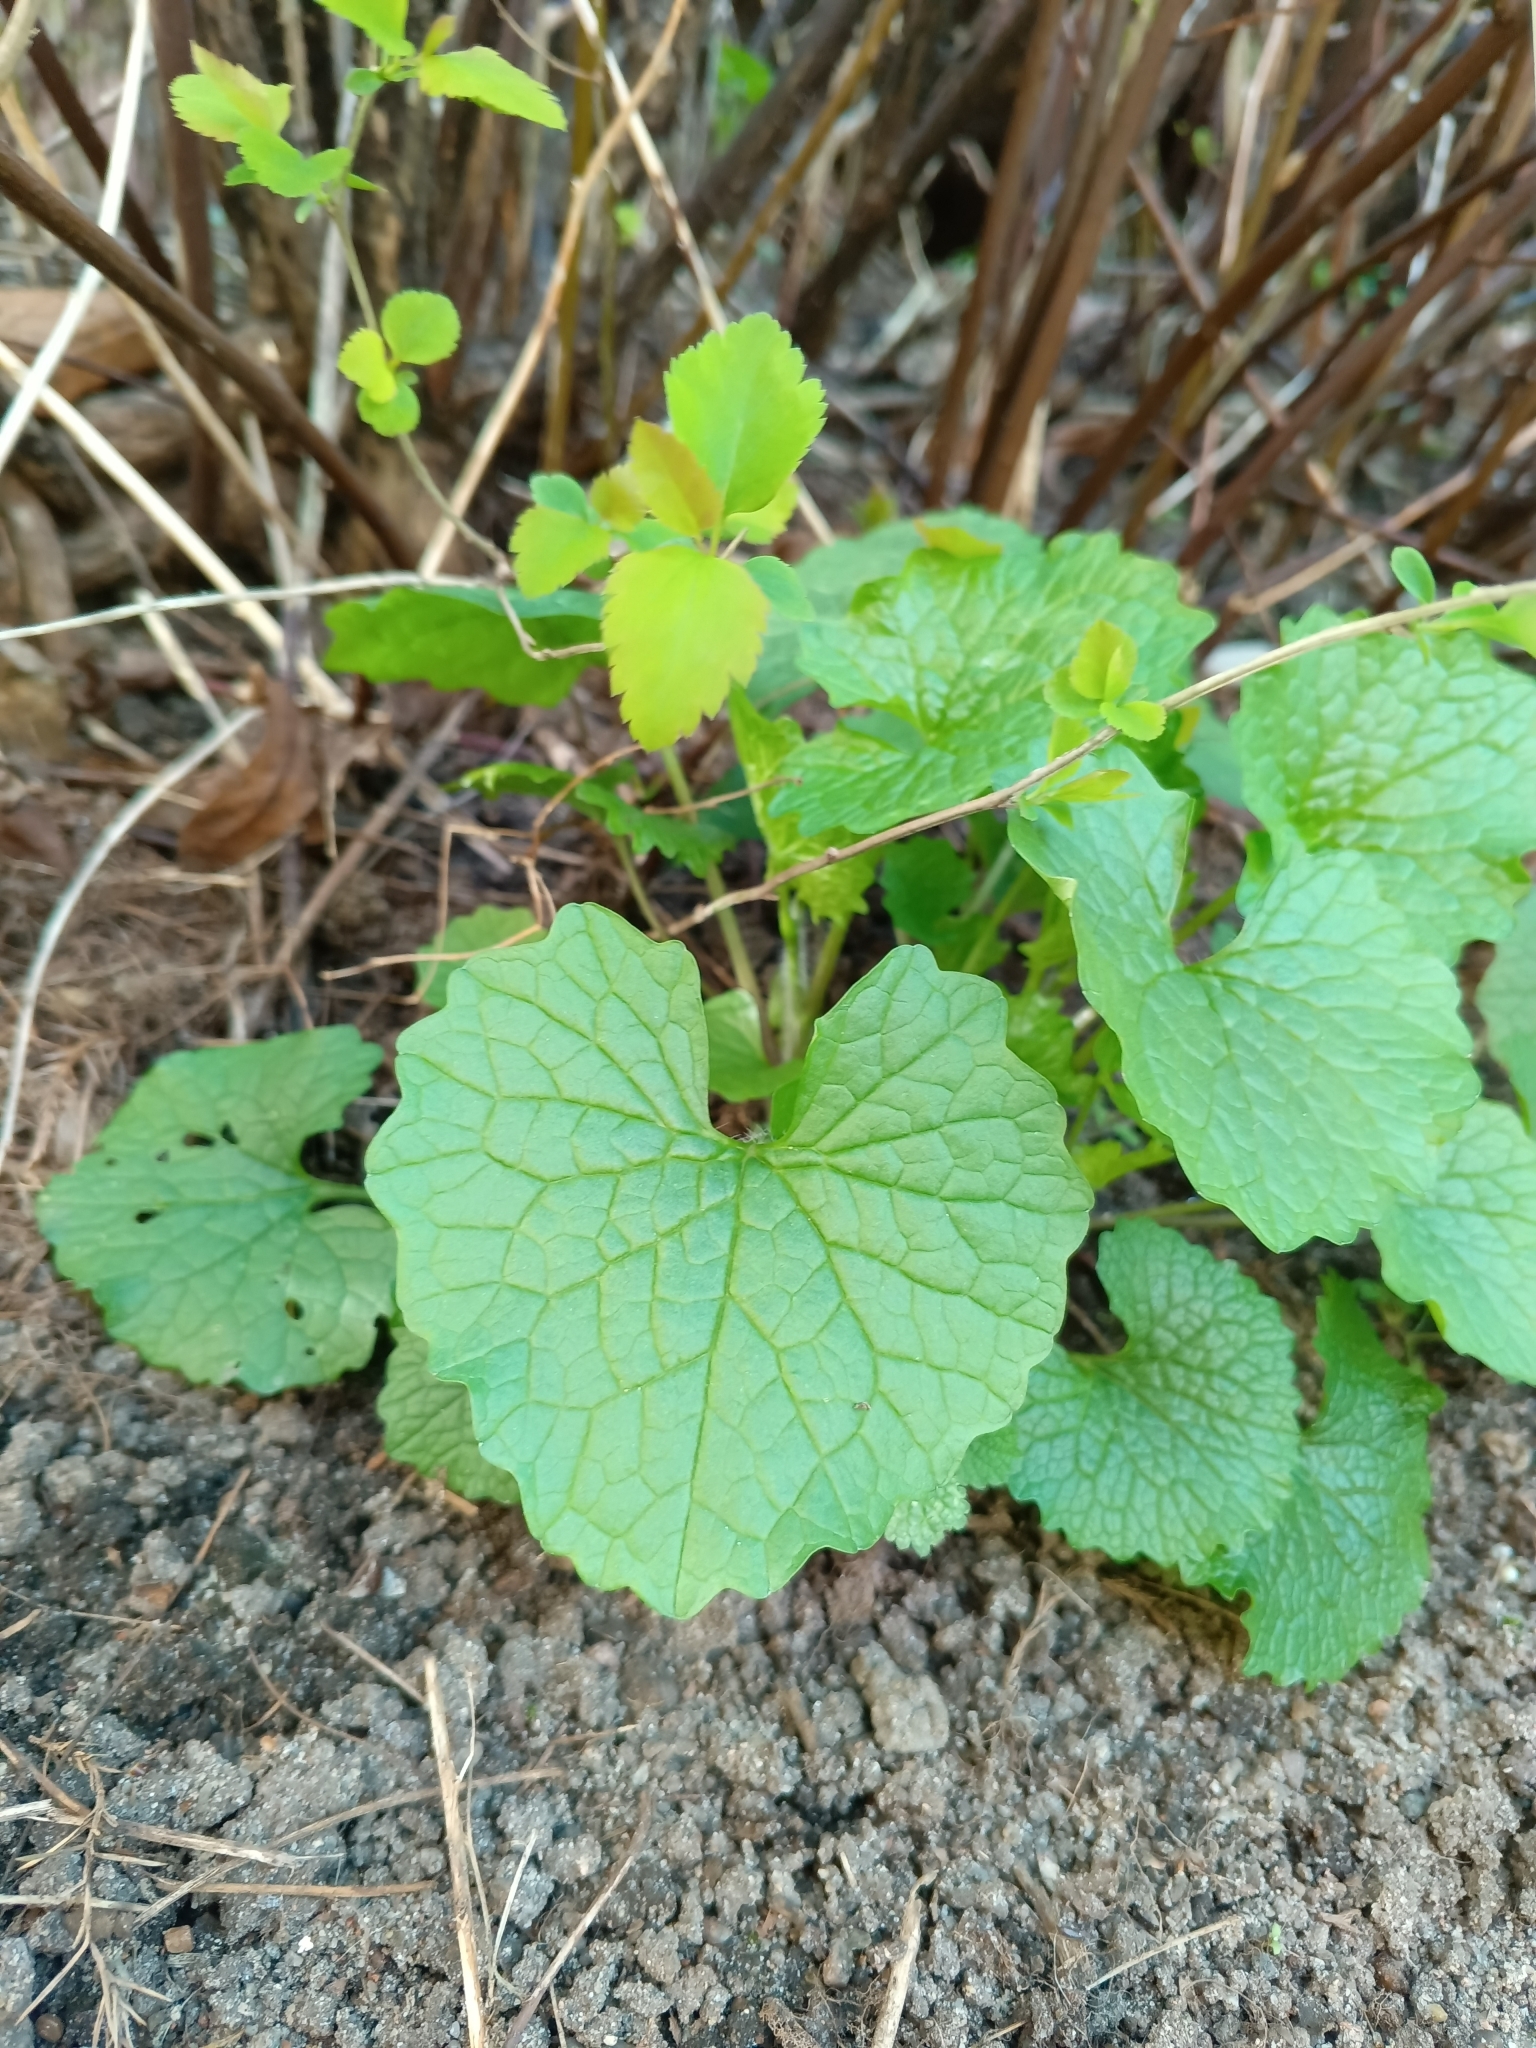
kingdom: Plantae
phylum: Tracheophyta
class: Magnoliopsida
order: Brassicales
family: Brassicaceae
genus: Alliaria
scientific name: Alliaria petiolata
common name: Garlic mustard
